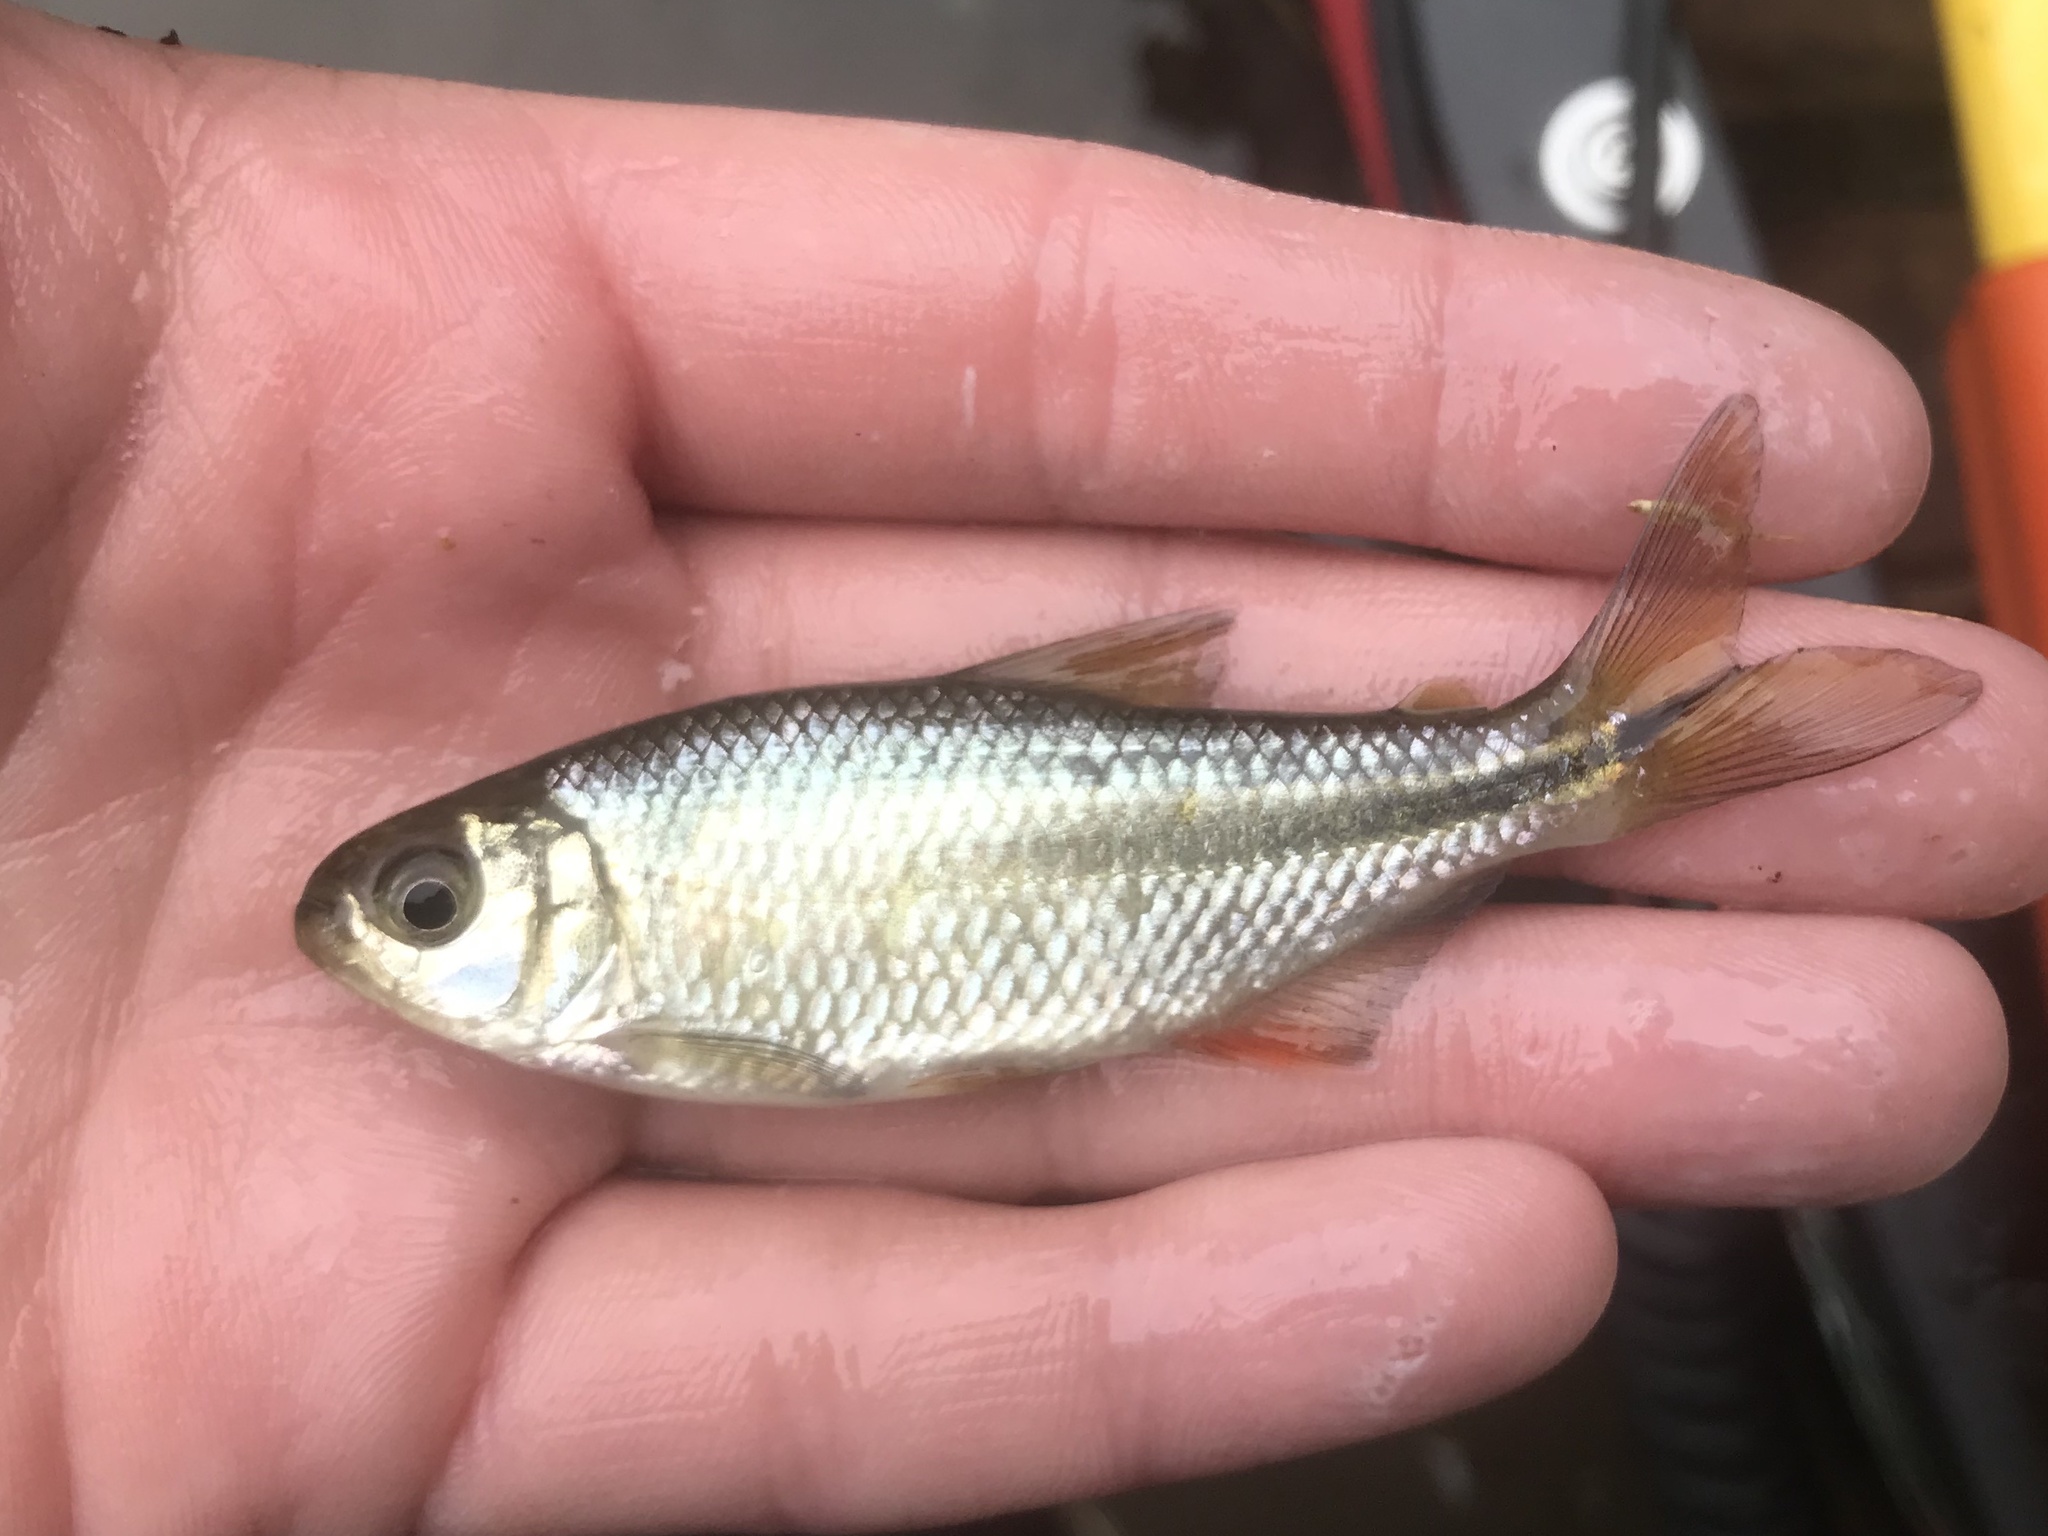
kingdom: Animalia
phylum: Chordata
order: Characiformes
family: Characidae
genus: Astyanax
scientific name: Astyanax mexicanus
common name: Mexican tetra
